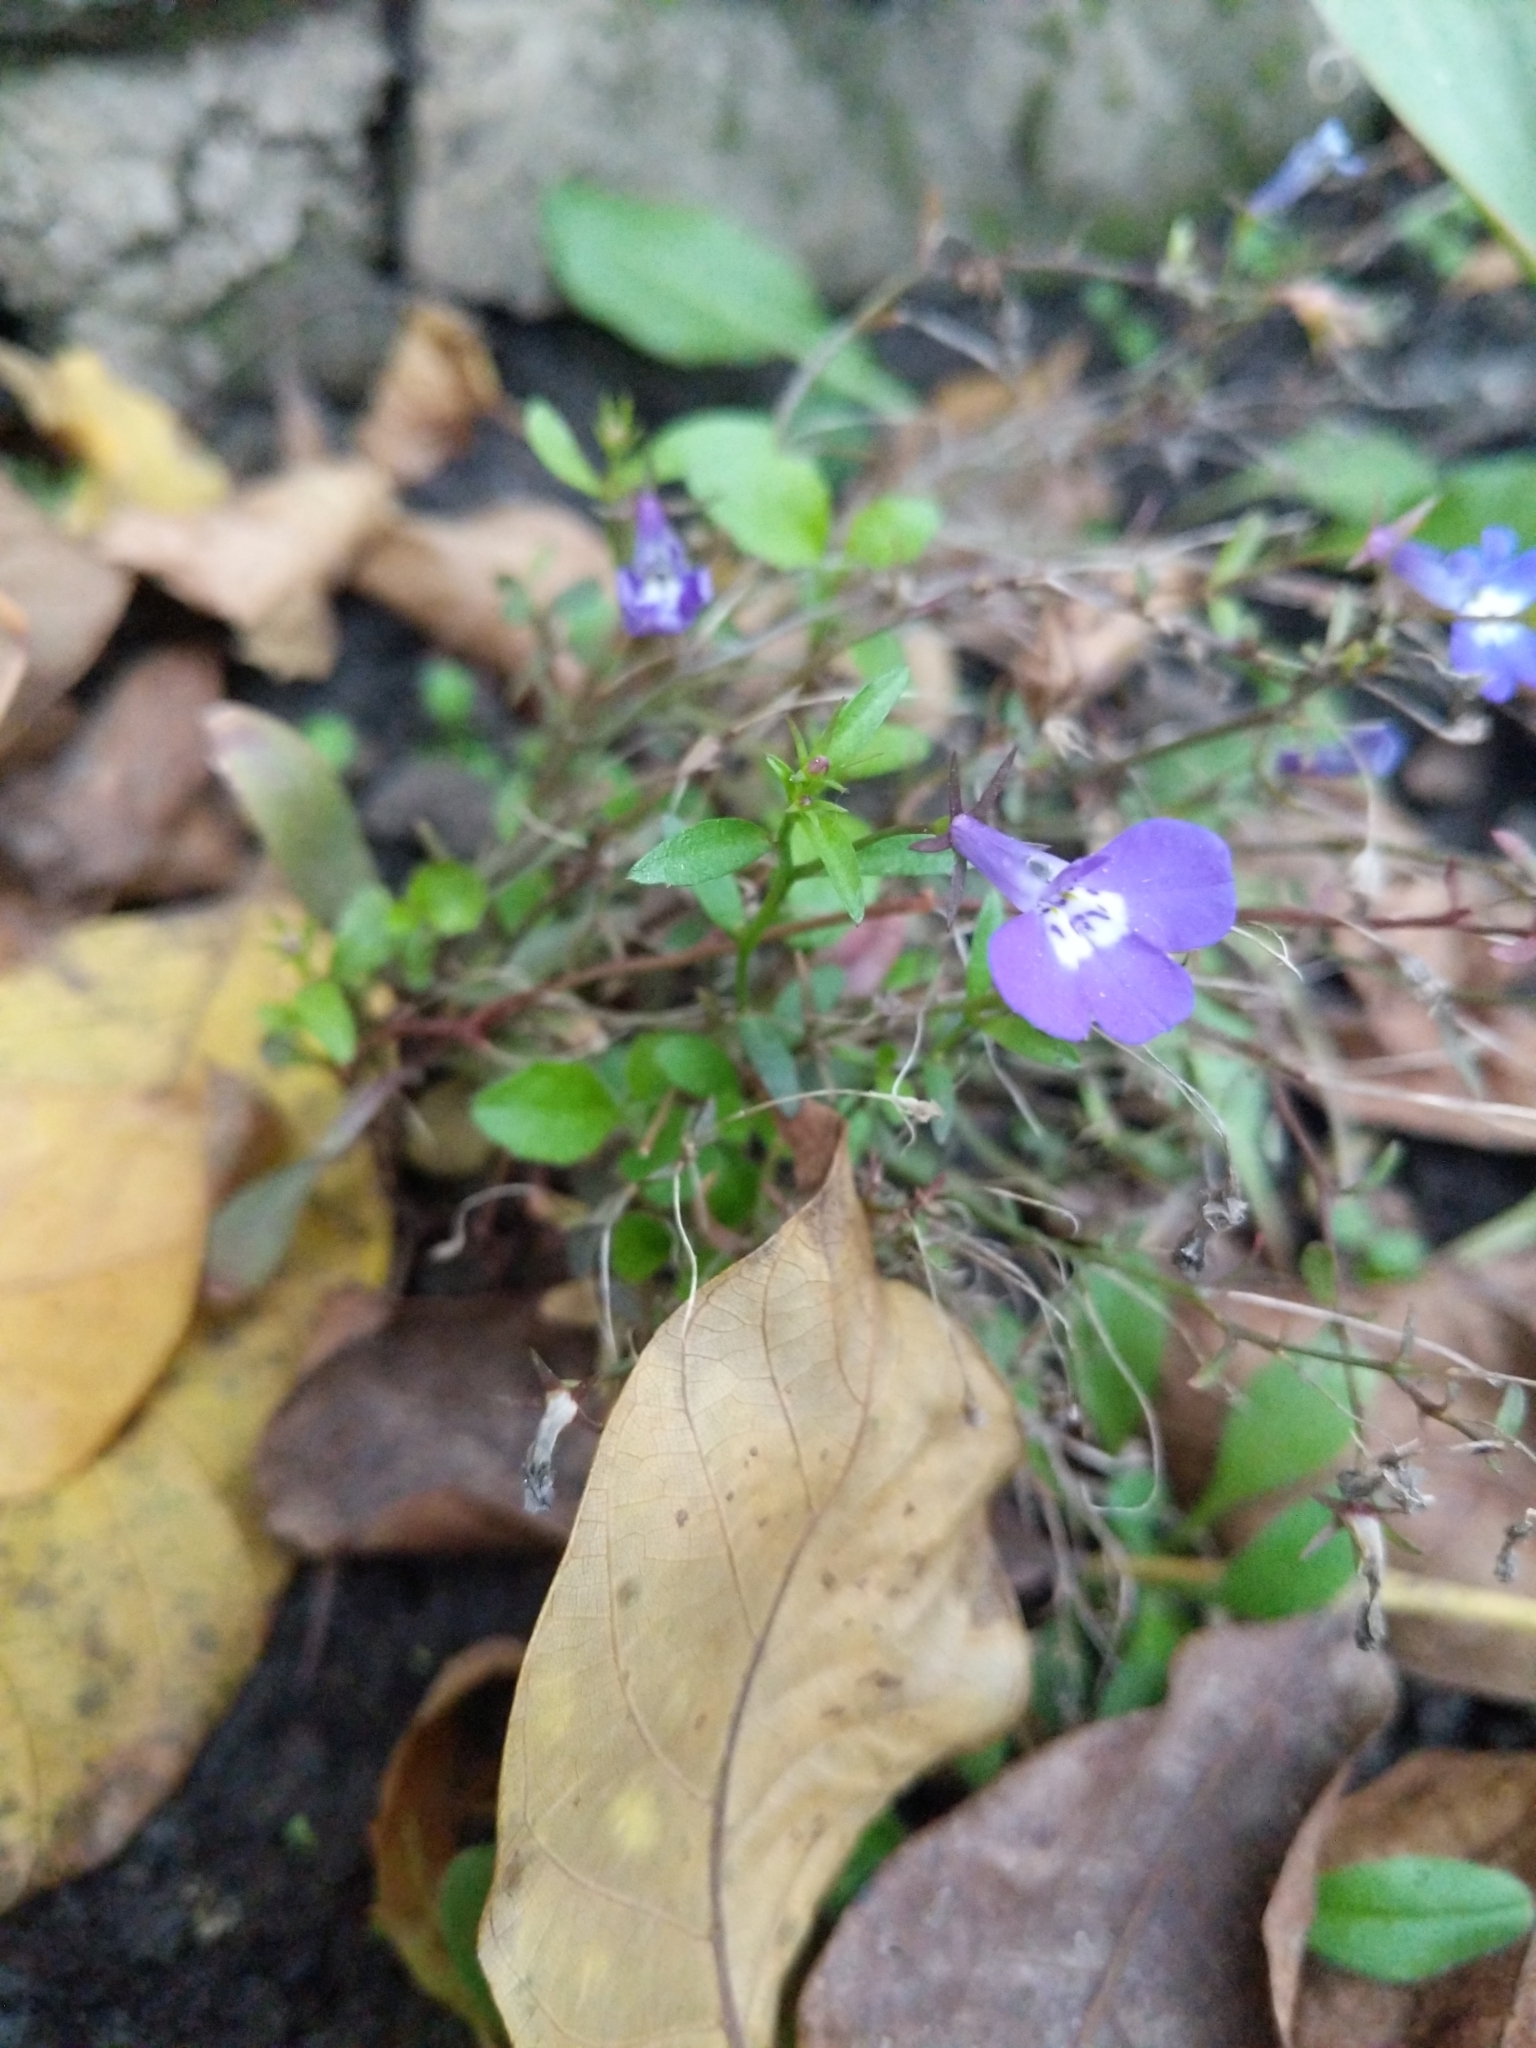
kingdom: Plantae
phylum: Tracheophyta
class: Magnoliopsida
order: Asterales
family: Campanulaceae
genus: Lobelia
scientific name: Lobelia erinus
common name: Edging lobelia
